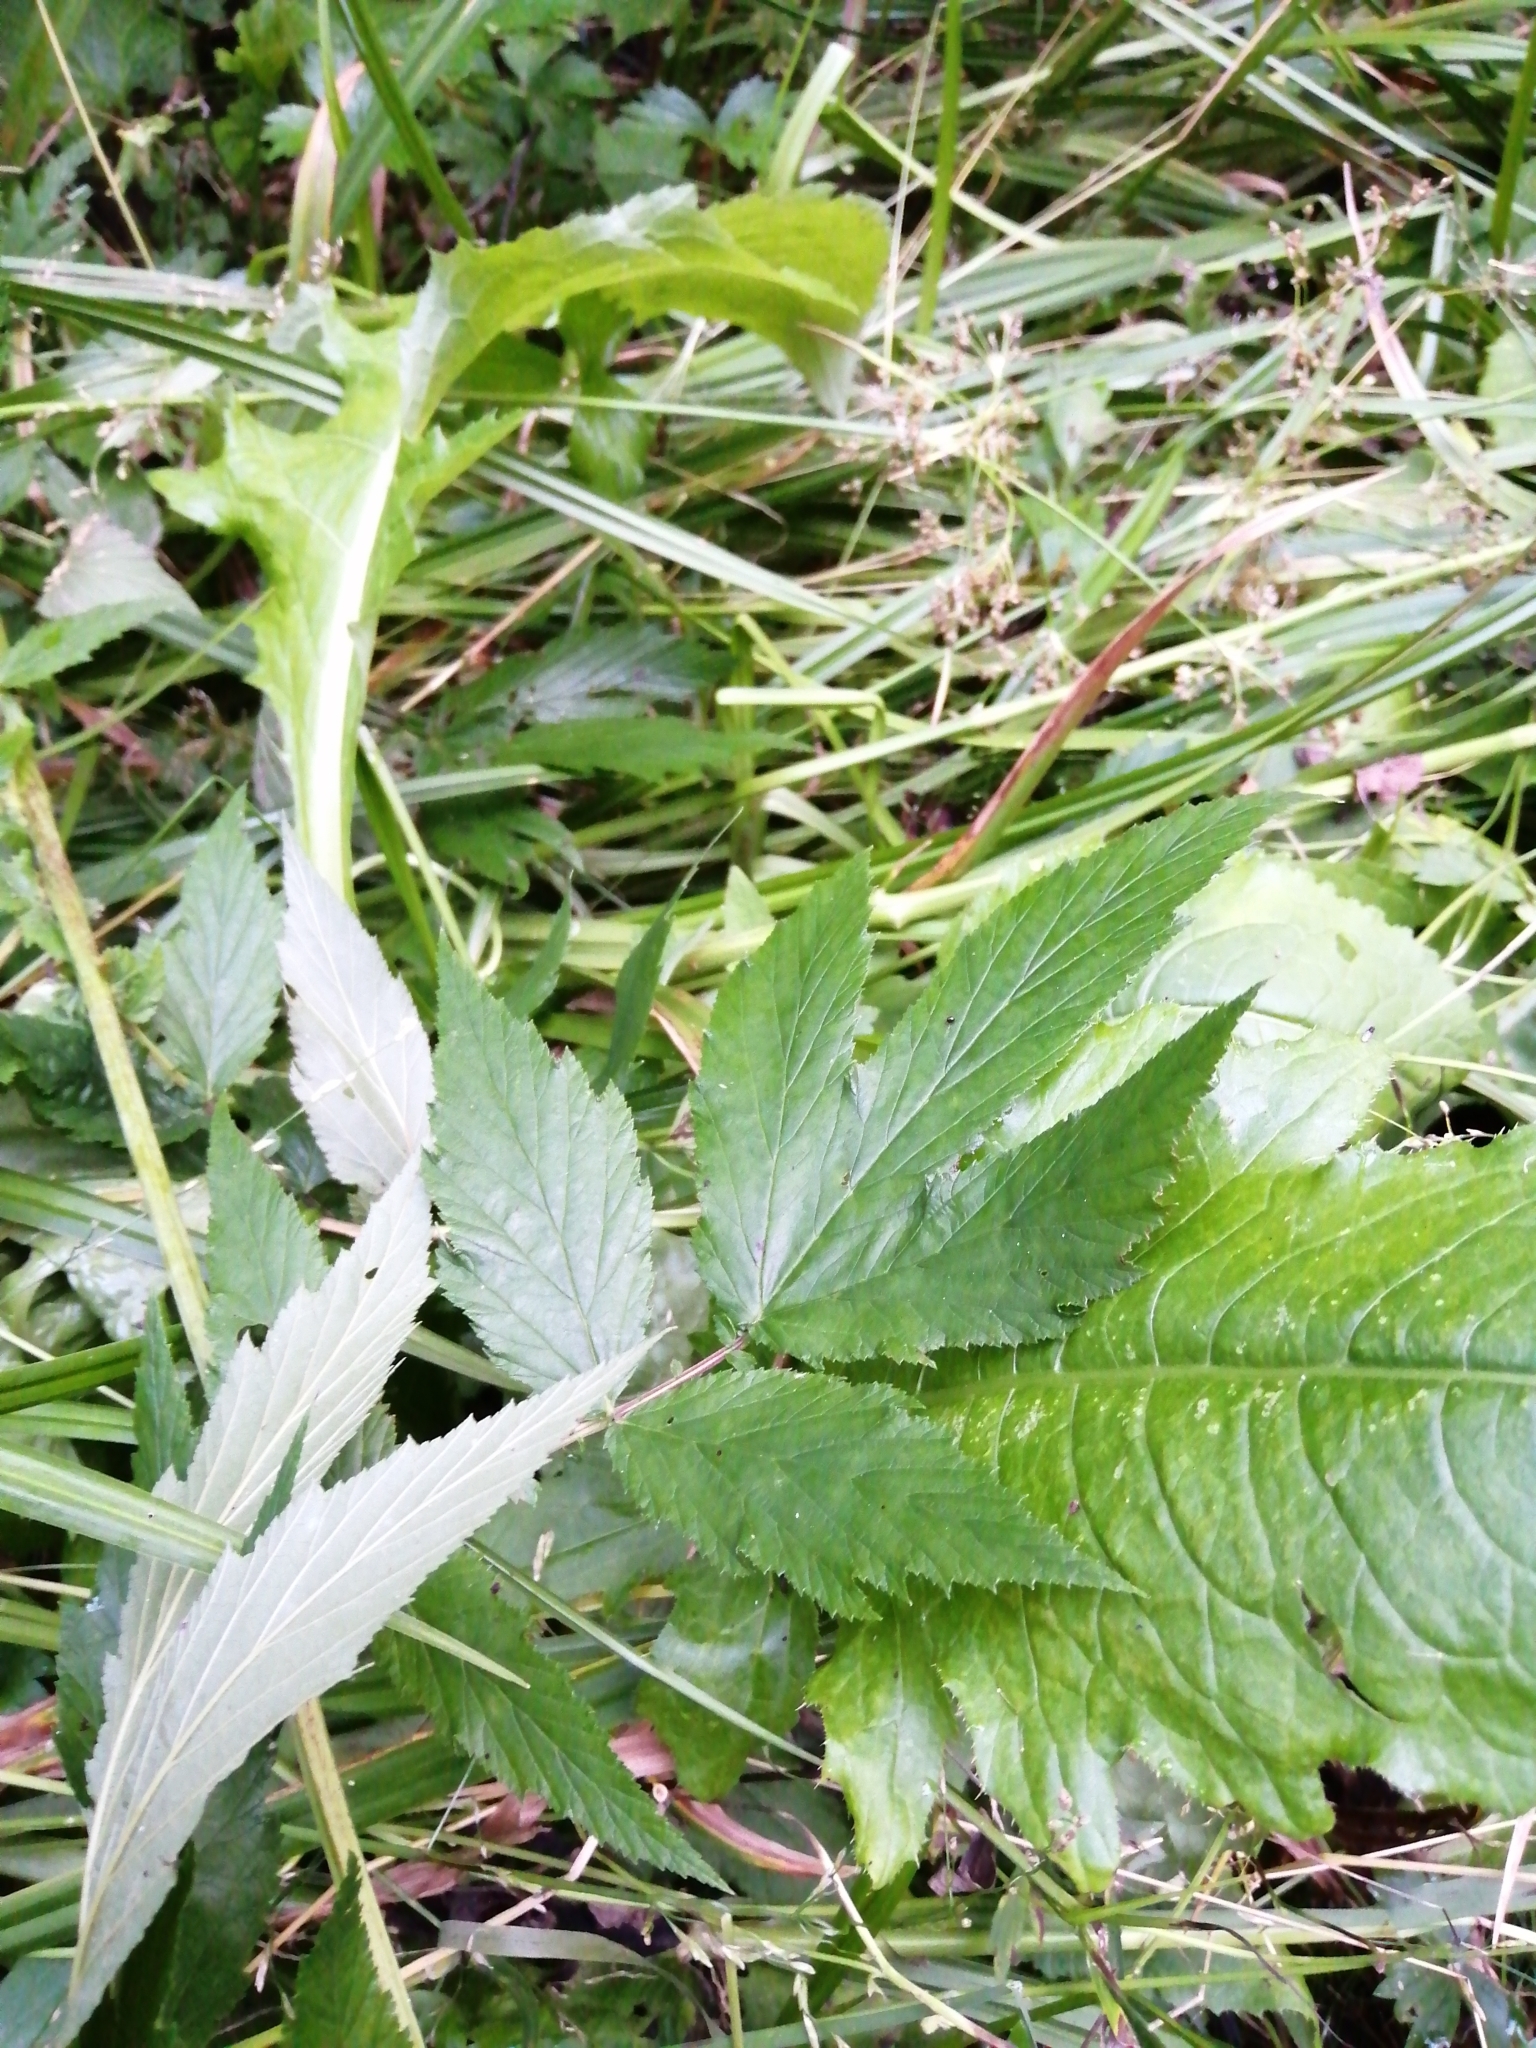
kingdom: Plantae
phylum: Tracheophyta
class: Magnoliopsida
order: Rosales
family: Rosaceae
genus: Filipendula
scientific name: Filipendula ulmaria
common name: Meadowsweet
